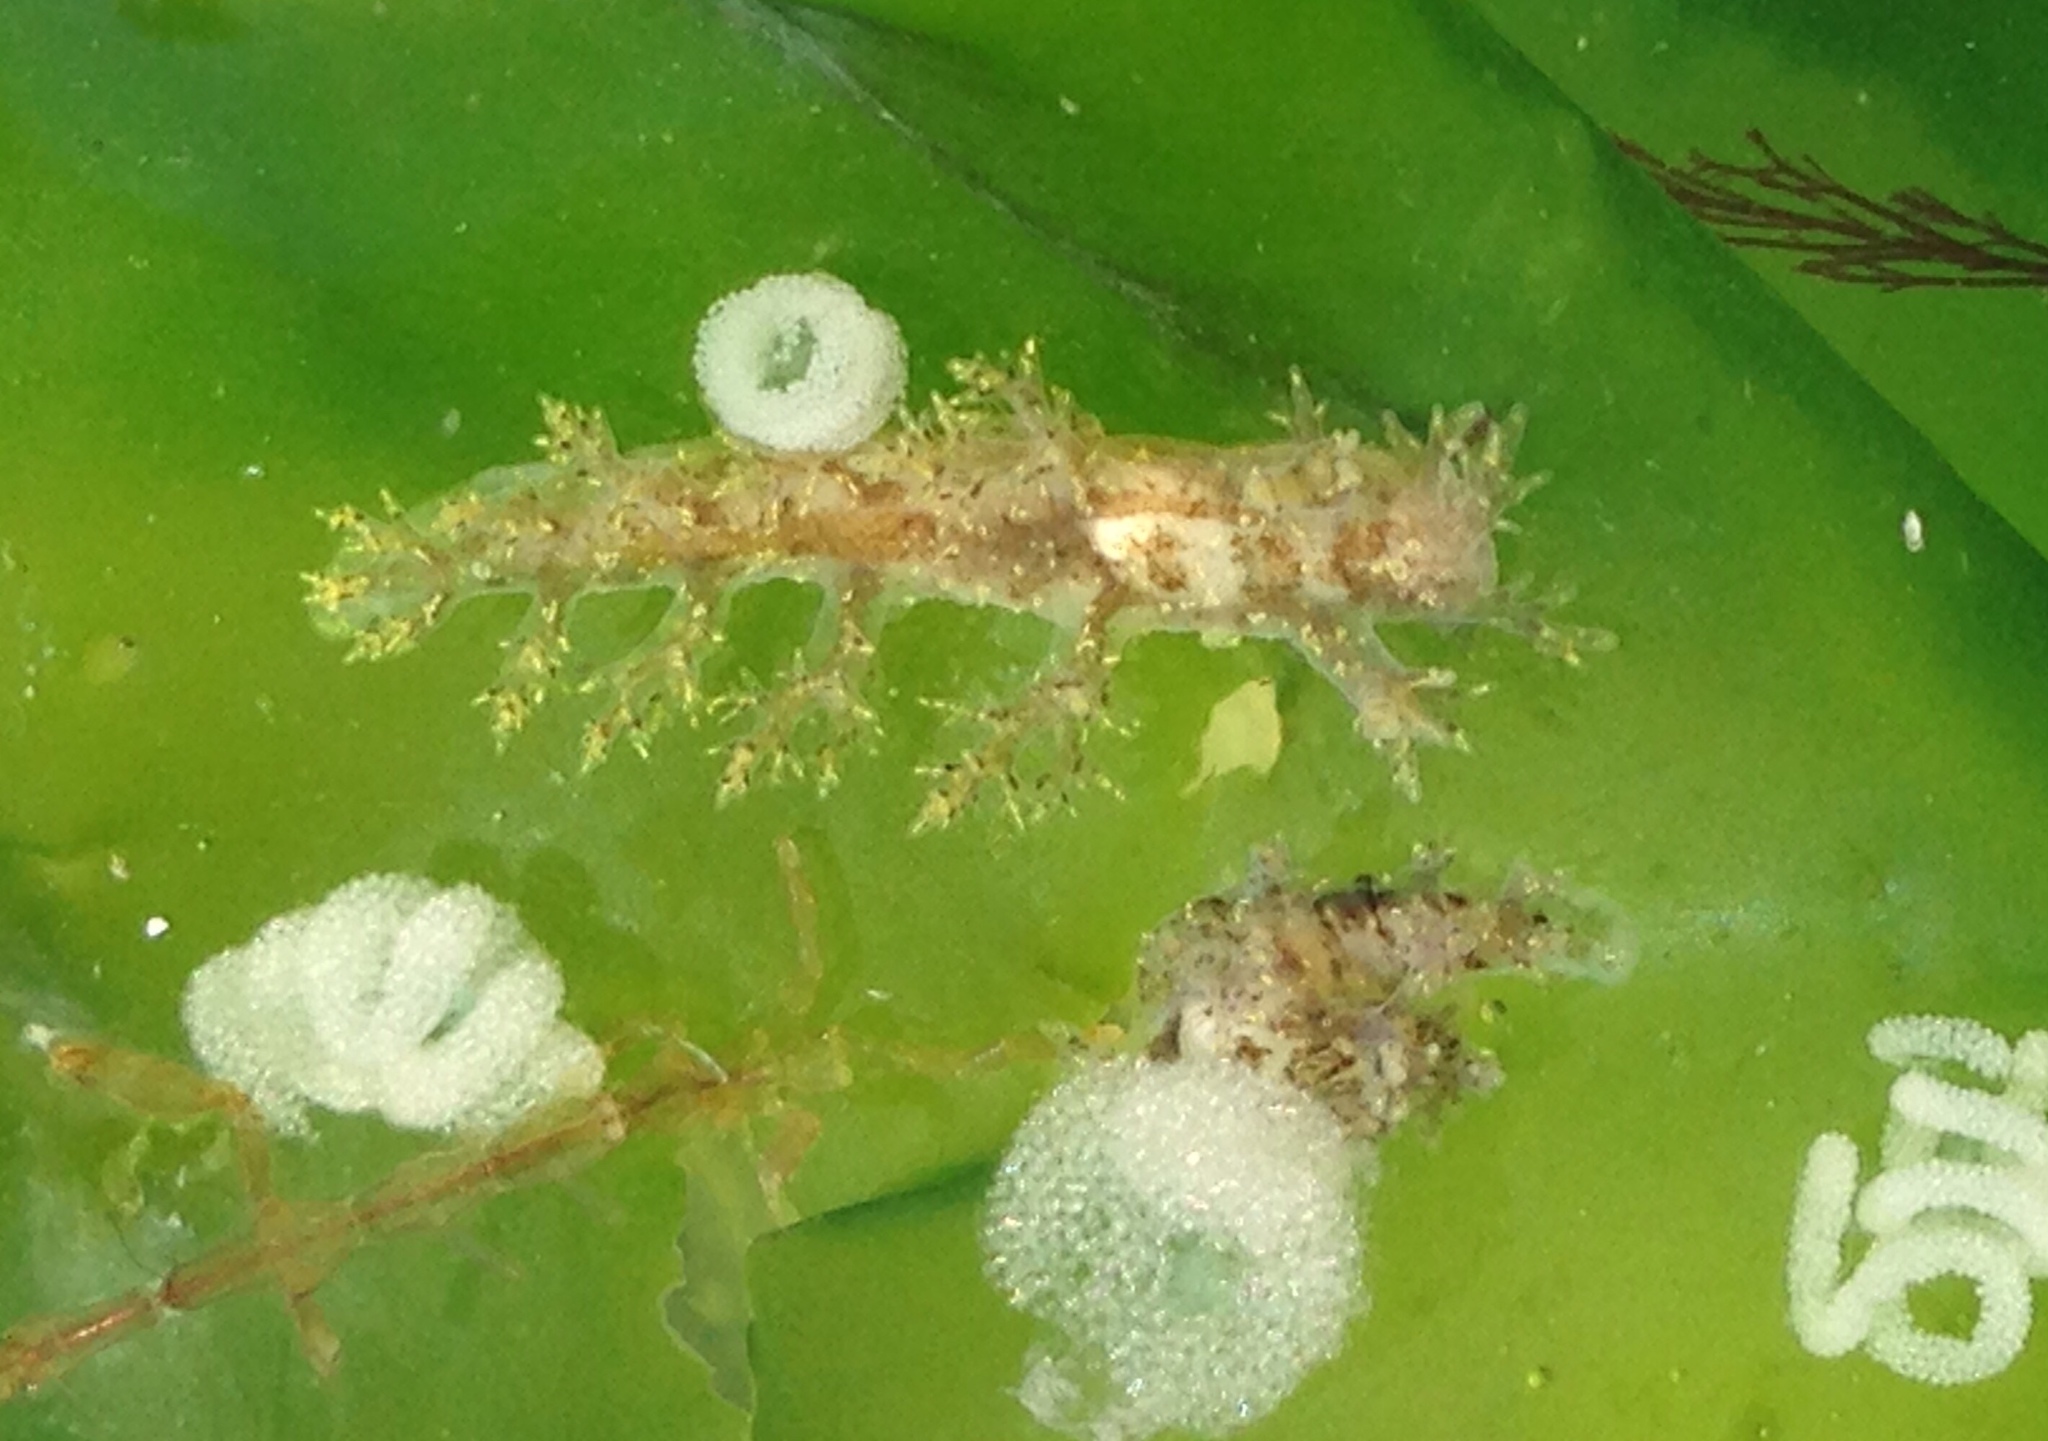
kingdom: Animalia
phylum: Mollusca
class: Gastropoda
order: Nudibranchia
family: Dendronotidae
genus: Dendronotus
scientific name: Dendronotus venustus
